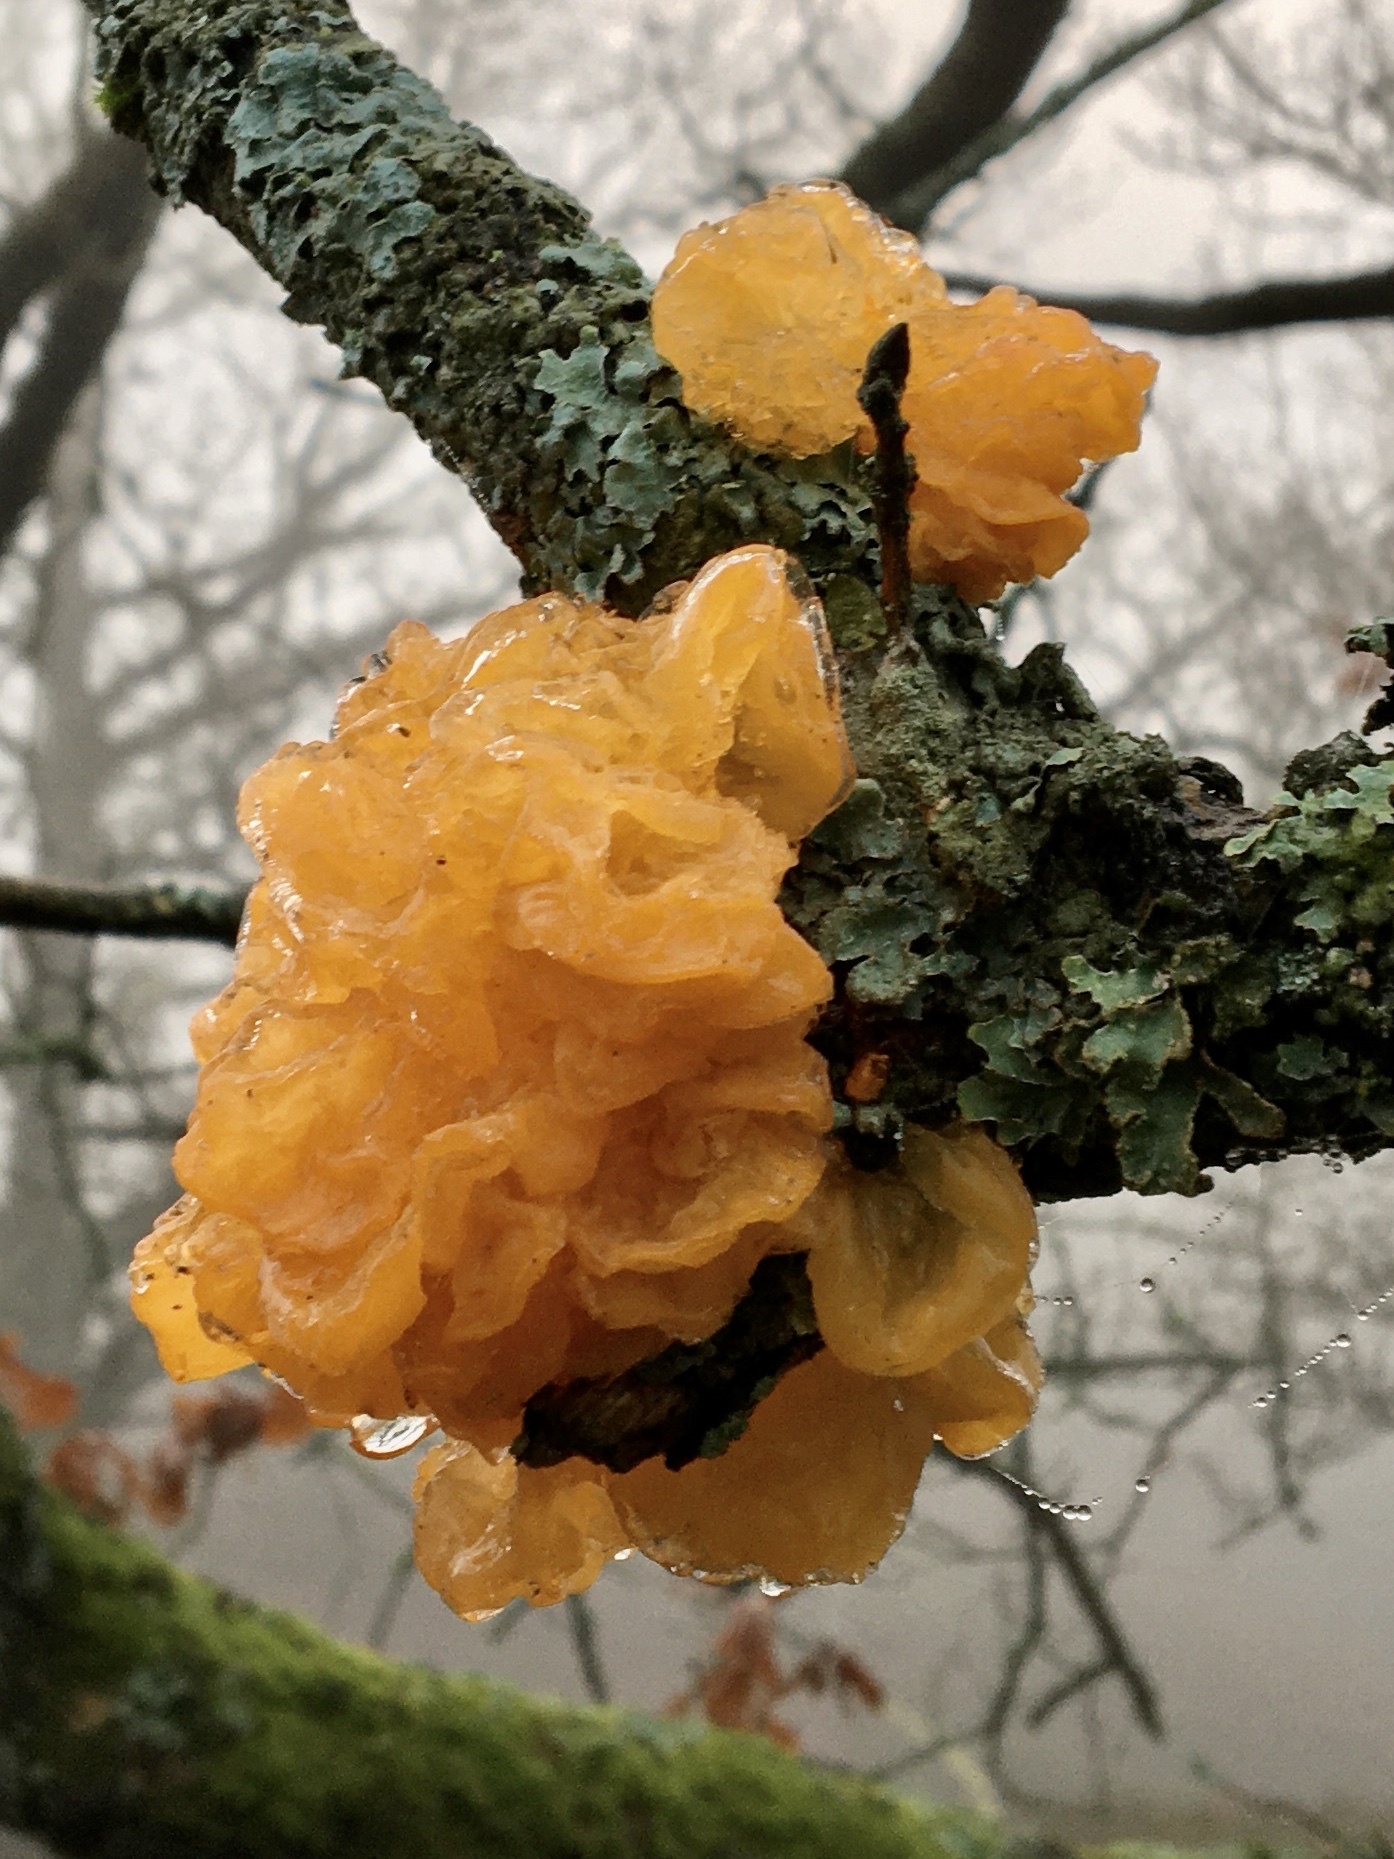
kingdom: Fungi
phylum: Basidiomycota
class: Tremellomycetes
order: Tremellales
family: Tremellaceae
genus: Tremella
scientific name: Tremella mesenterica
